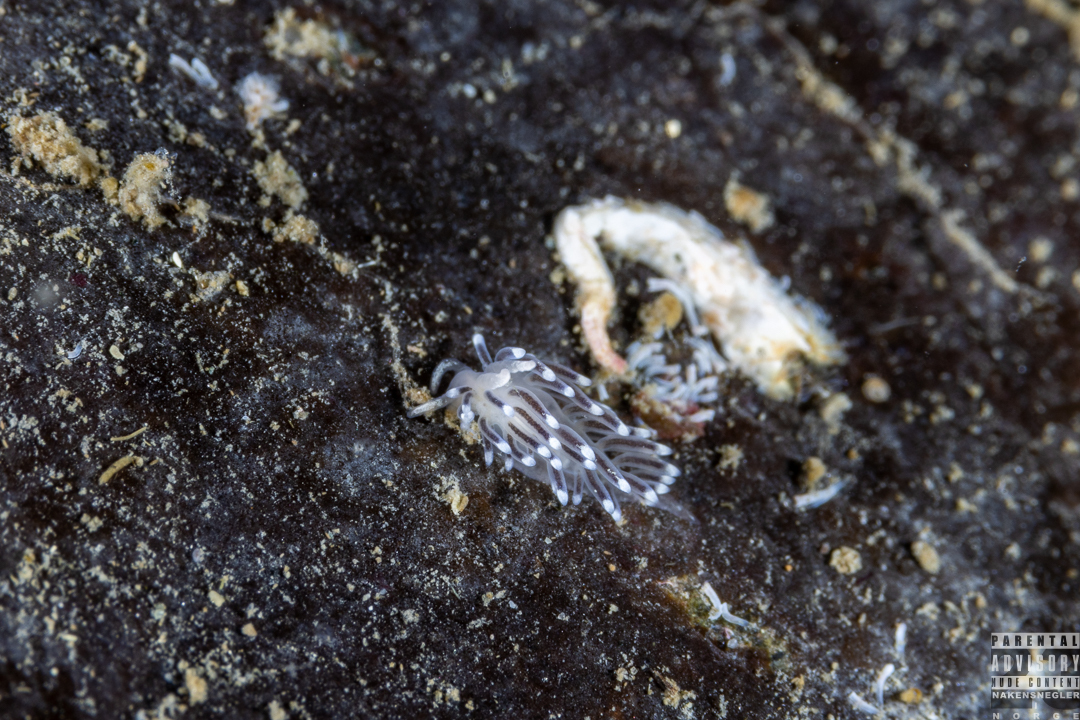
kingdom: Animalia
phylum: Mollusca
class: Gastropoda
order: Nudibranchia
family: Cuthonellidae
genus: Cuthonella
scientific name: Cuthonella concinna
